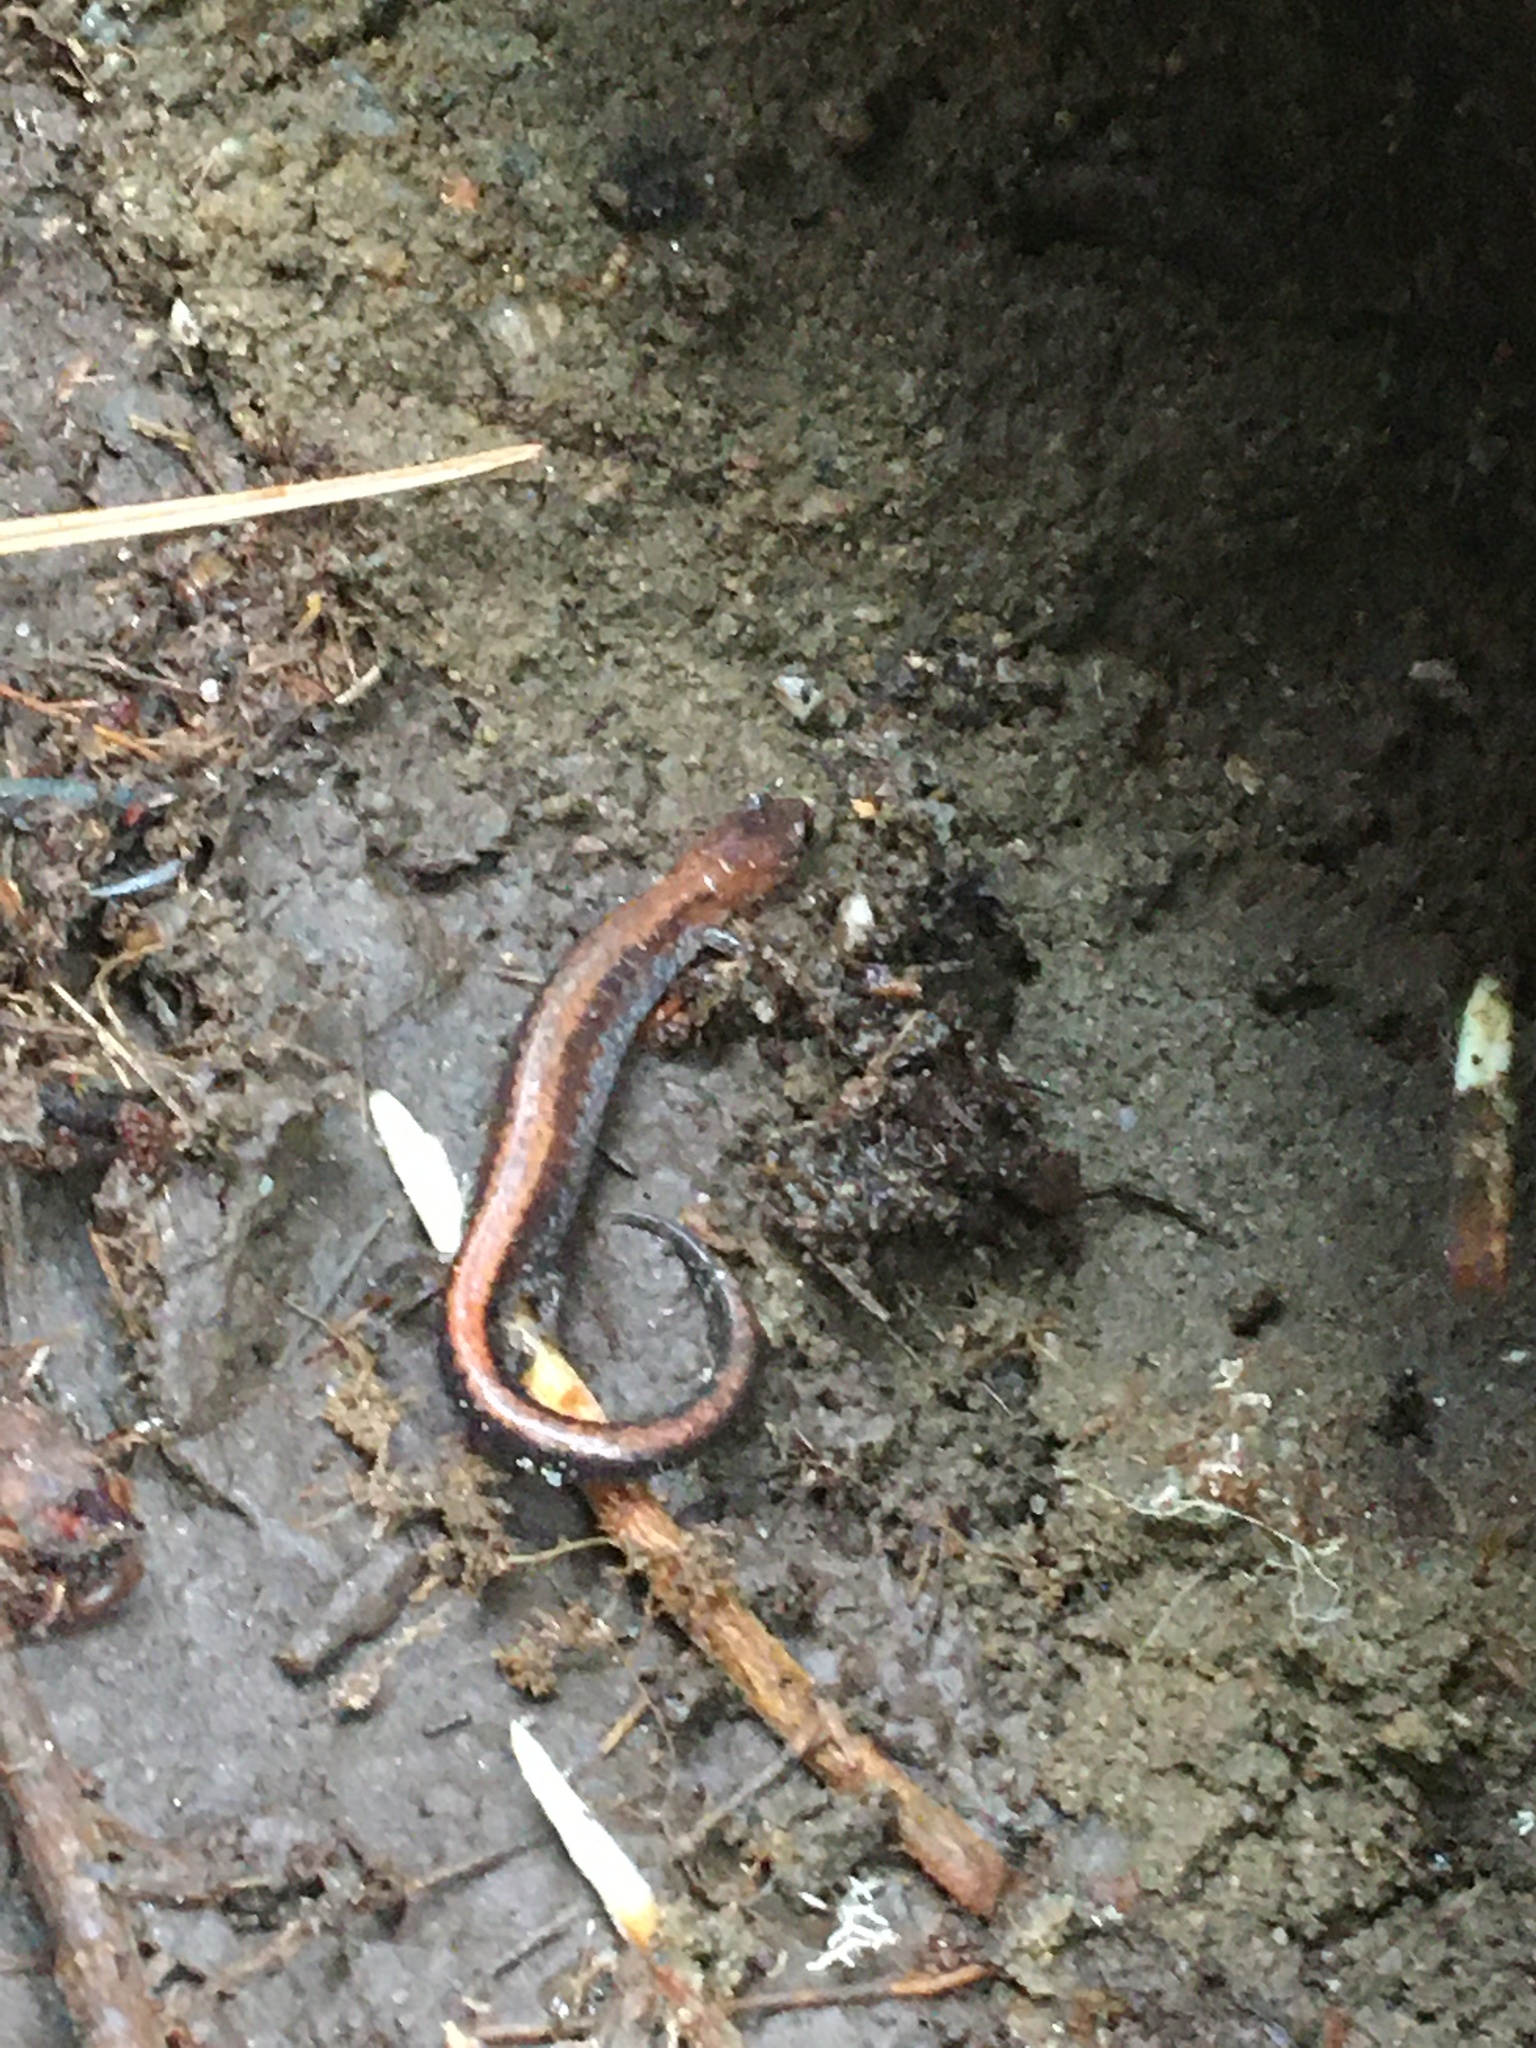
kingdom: Animalia
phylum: Chordata
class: Amphibia
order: Caudata
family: Plethodontidae
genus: Plethodon
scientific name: Plethodon cinereus
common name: Redback salamander
